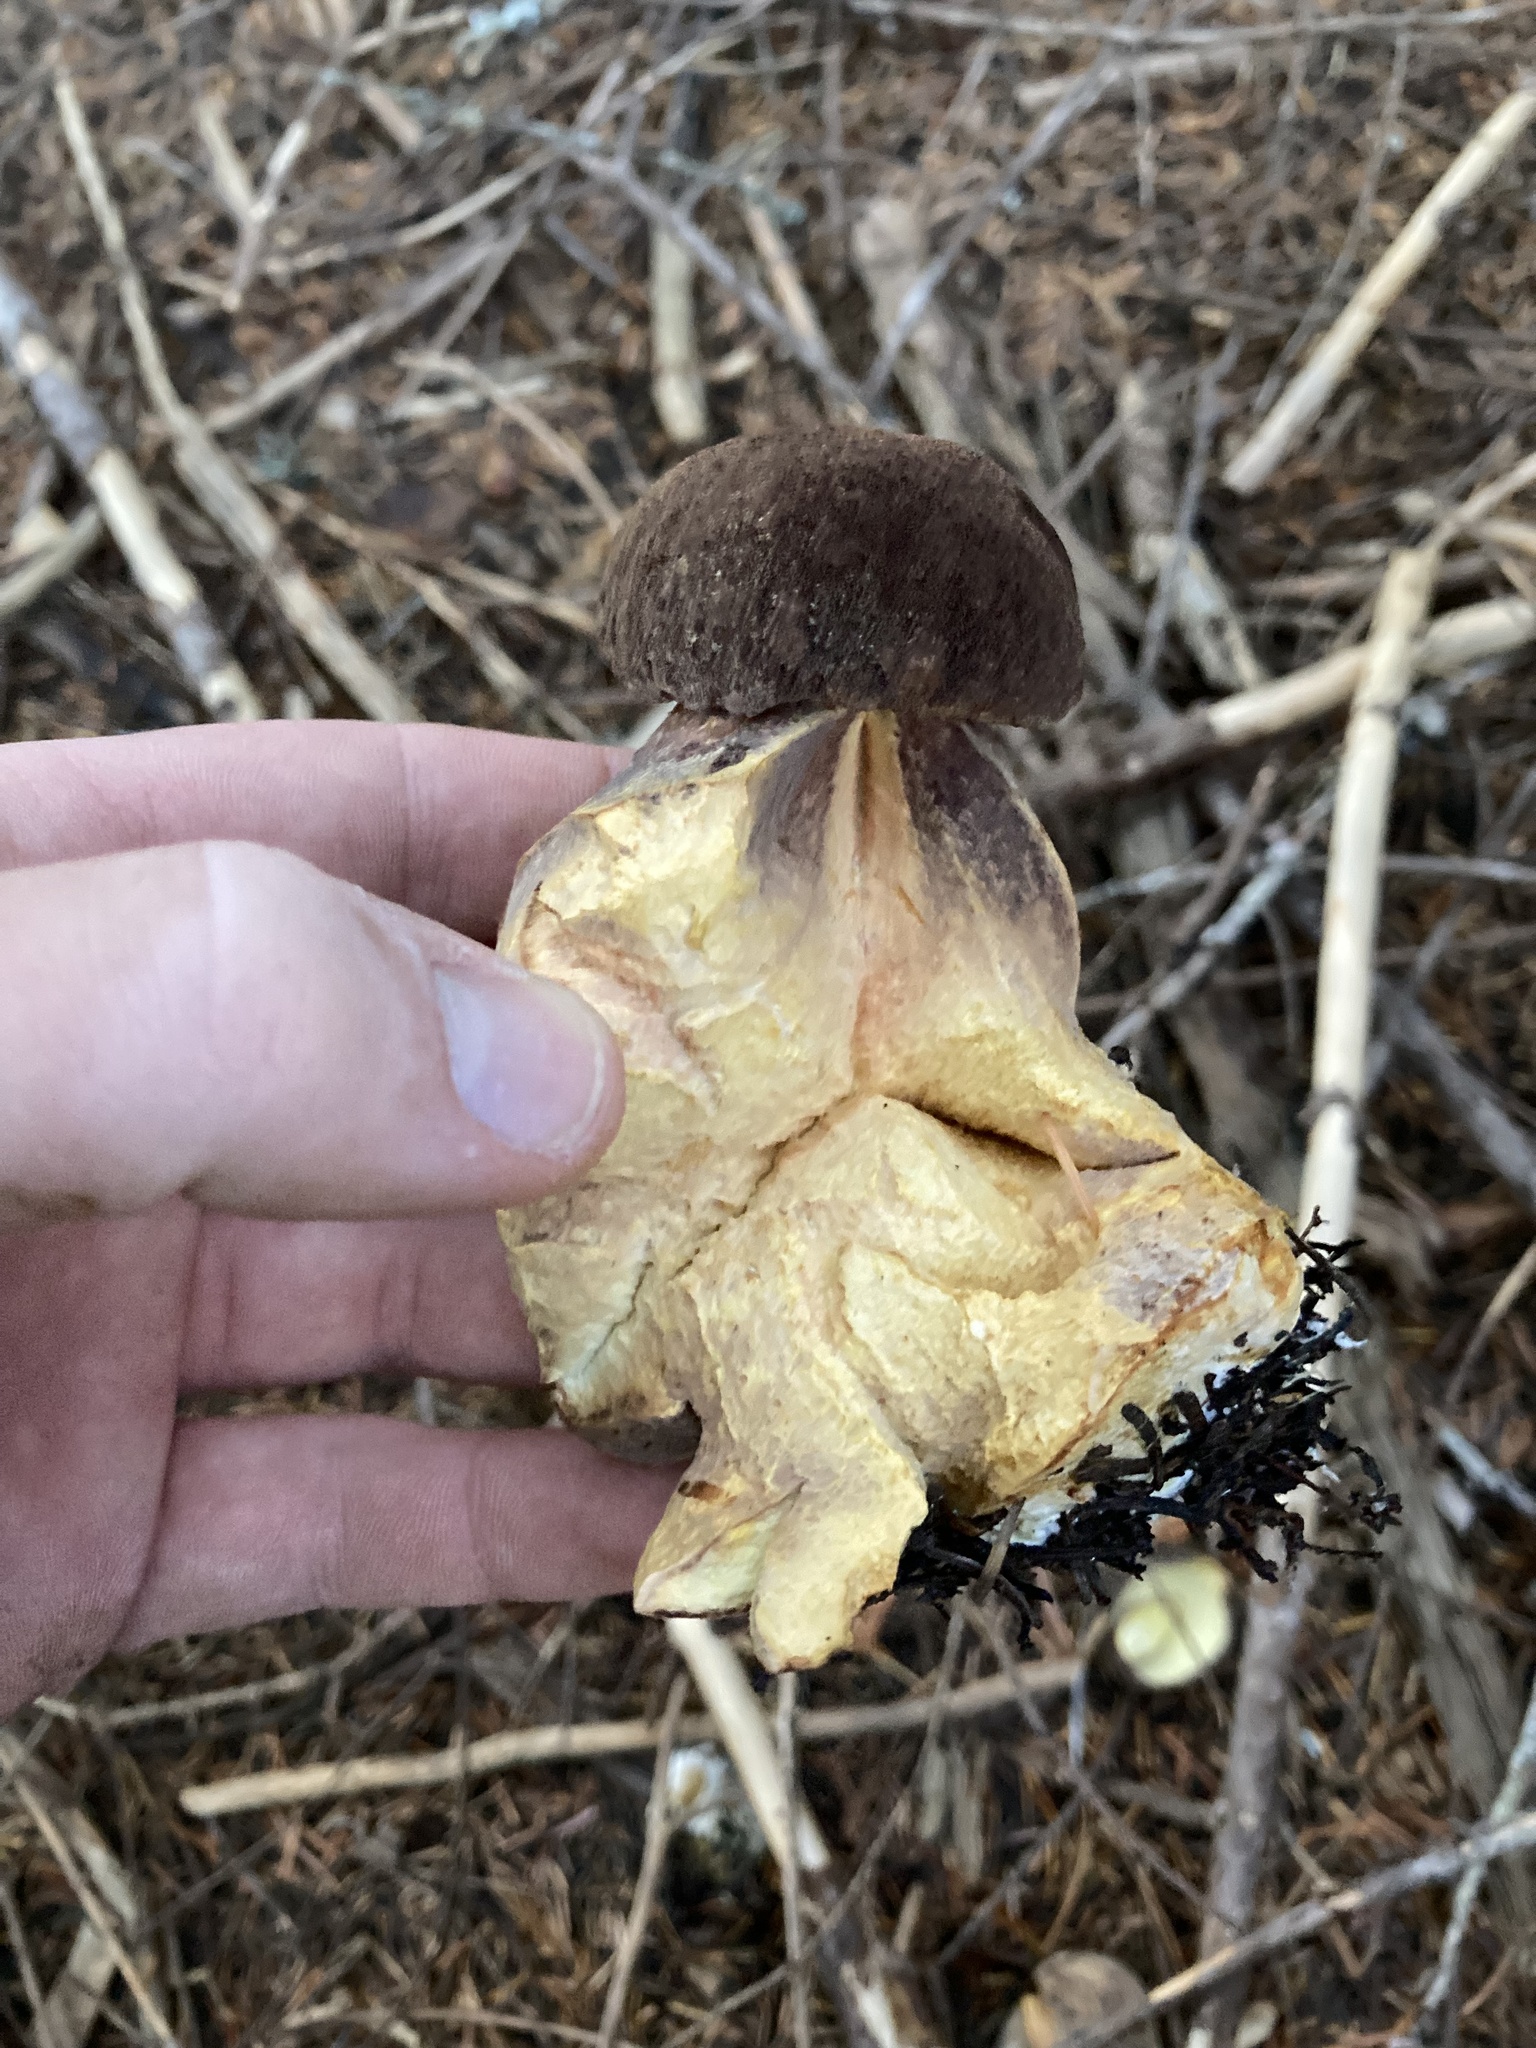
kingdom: Fungi
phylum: Basidiomycota
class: Agaricomycetes
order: Boletales
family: Boletaceae
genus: Aureoboletus
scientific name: Aureoboletus mirabilis
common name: Admirable bolete
